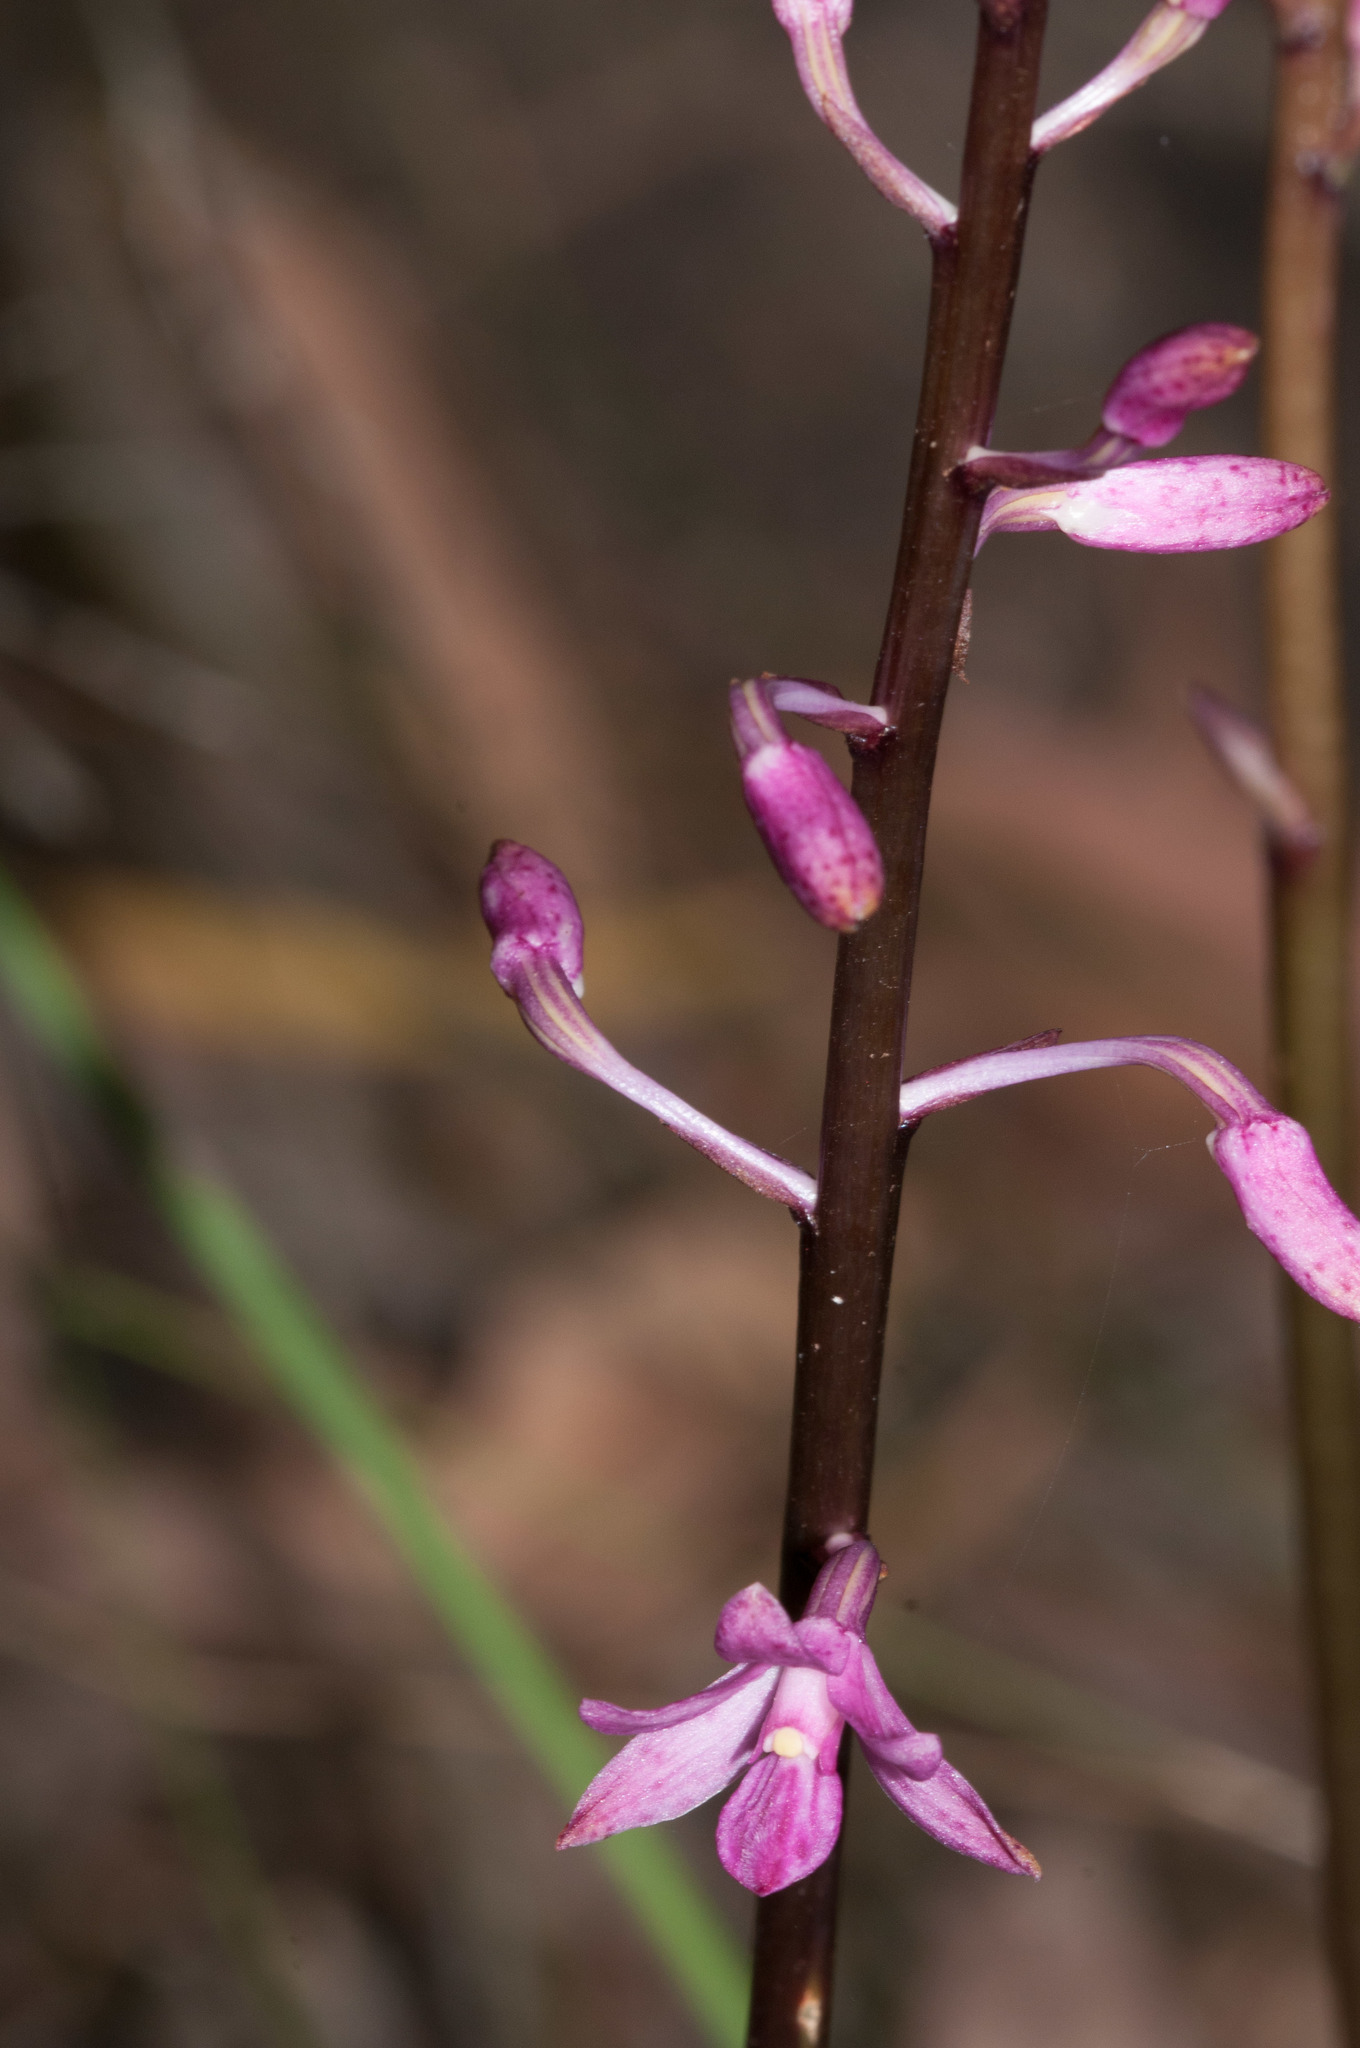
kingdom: Plantae
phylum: Tracheophyta
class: Liliopsida
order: Asparagales
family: Orchidaceae
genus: Dipodium
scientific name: Dipodium roseum
